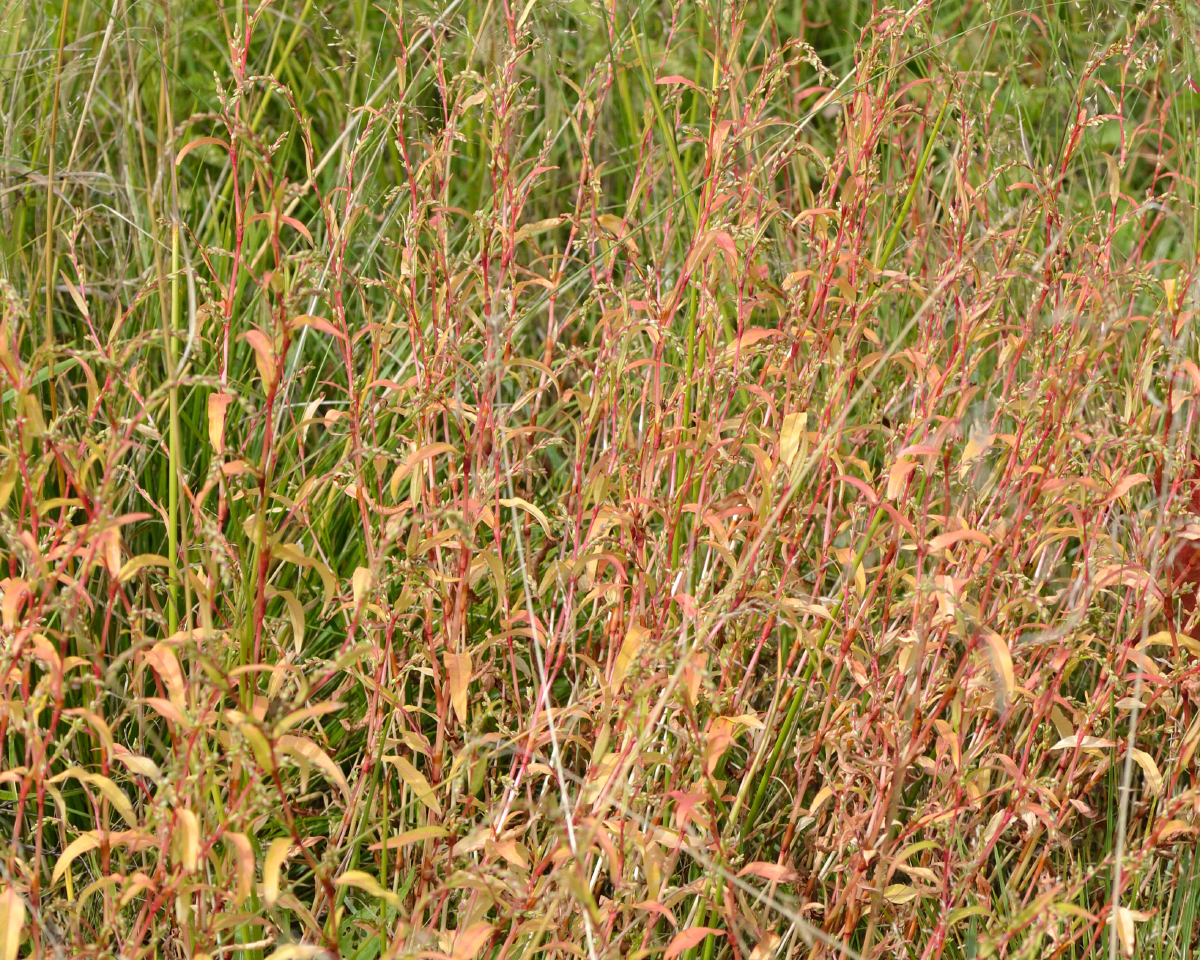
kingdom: Plantae
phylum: Tracheophyta
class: Magnoliopsida
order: Caryophyllales
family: Polygonaceae
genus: Persicaria
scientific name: Persicaria hydropiper
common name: Water-pepper
